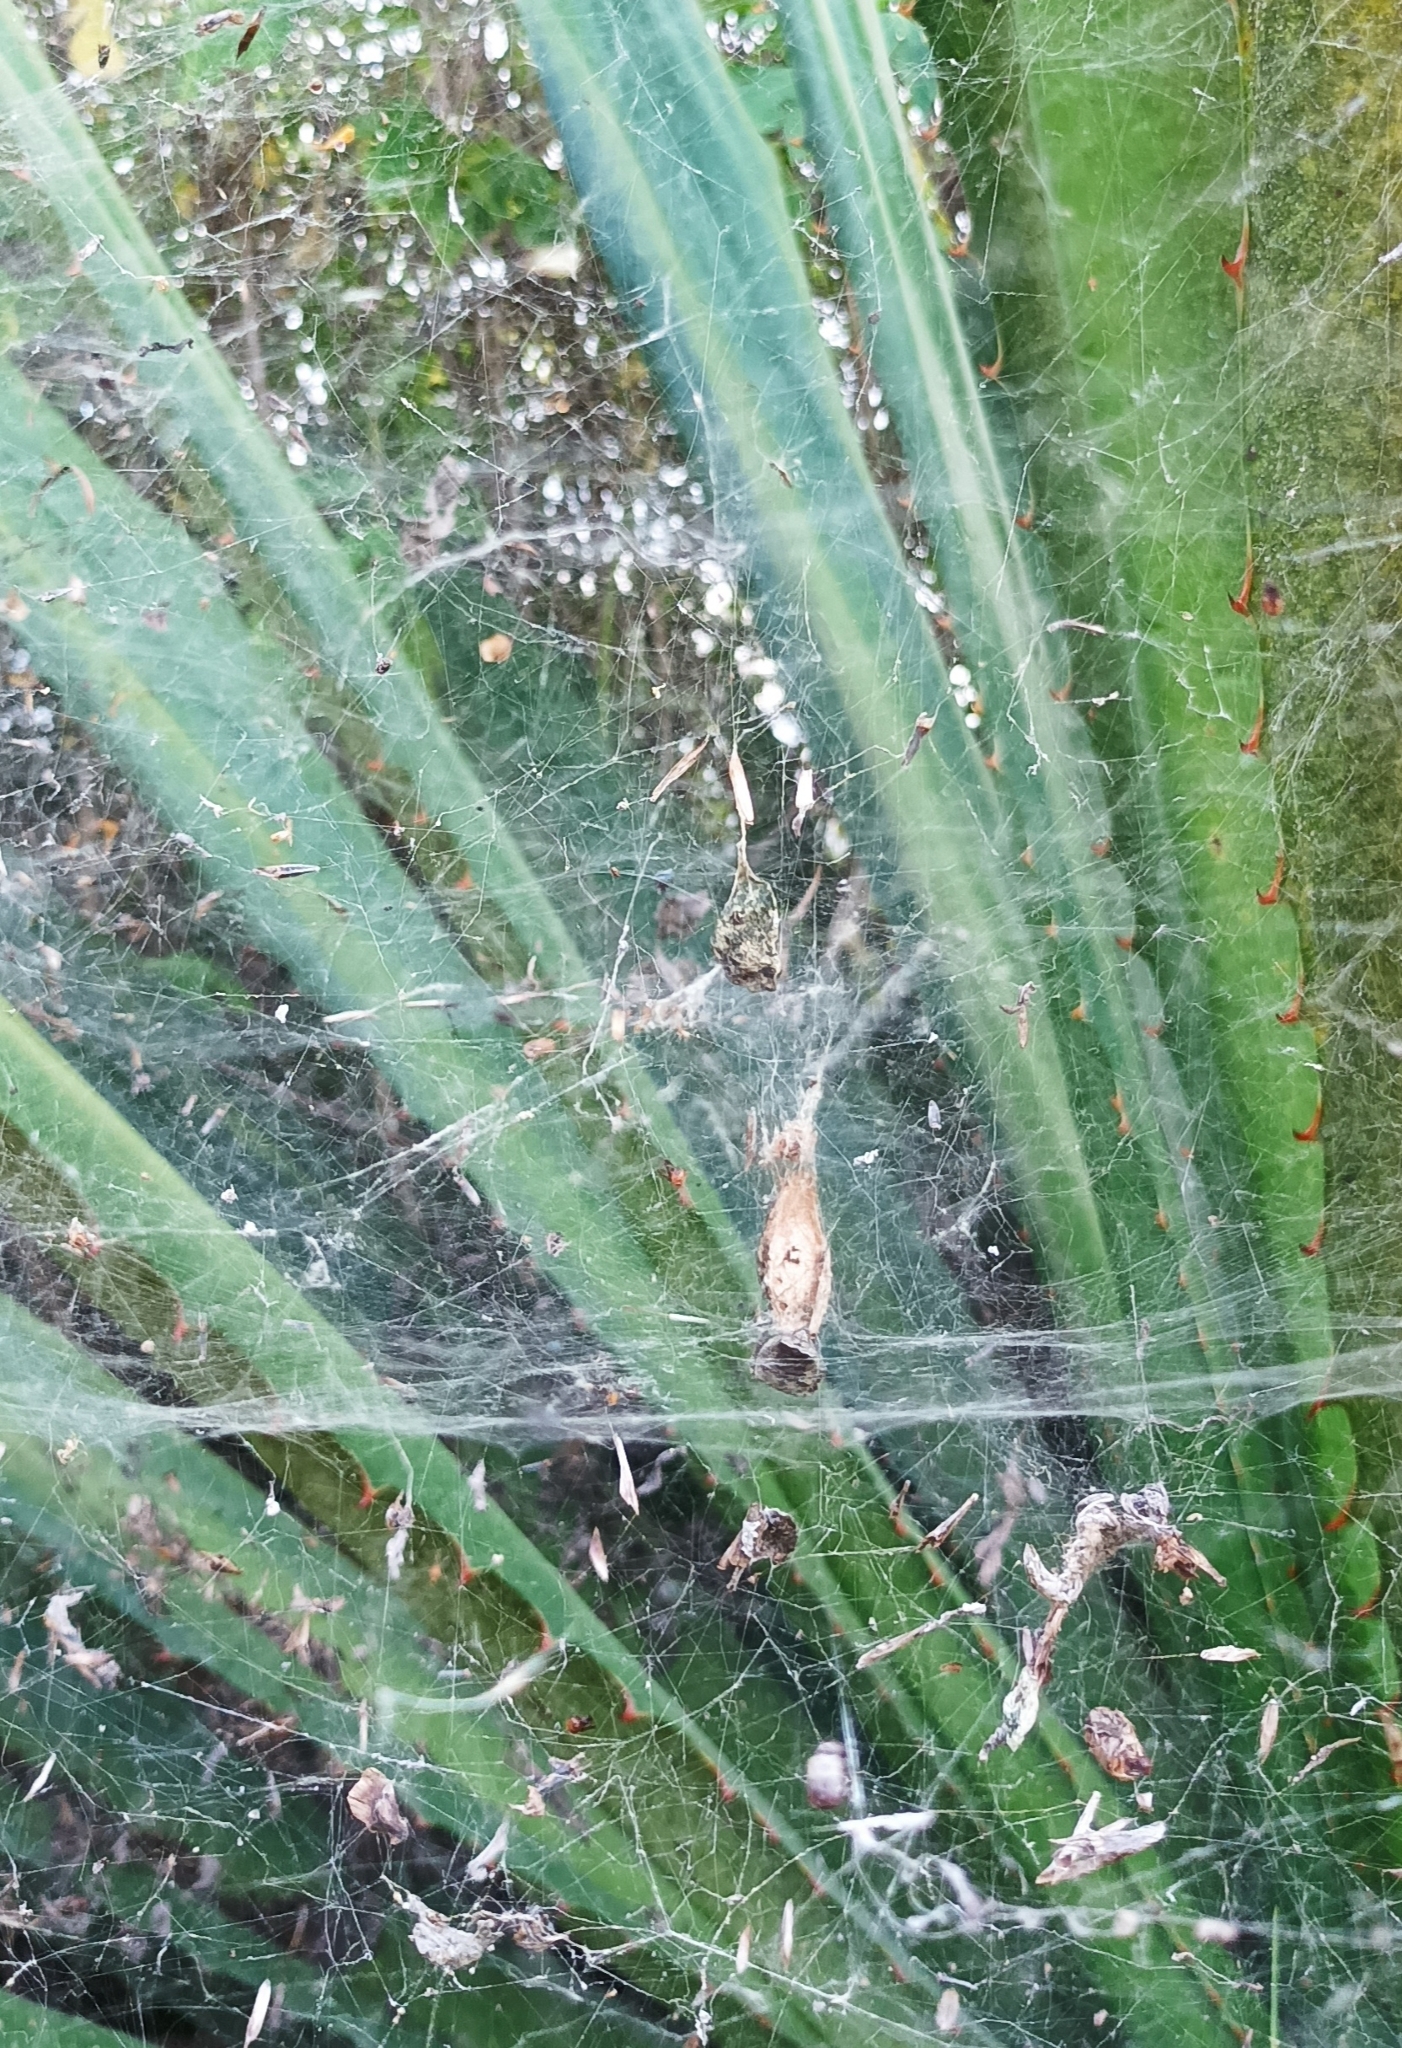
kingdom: Animalia
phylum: Arthropoda
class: Arachnida
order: Araneae
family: Araneidae
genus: Cyrtophora
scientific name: Cyrtophora citricola
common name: Orb weavers
